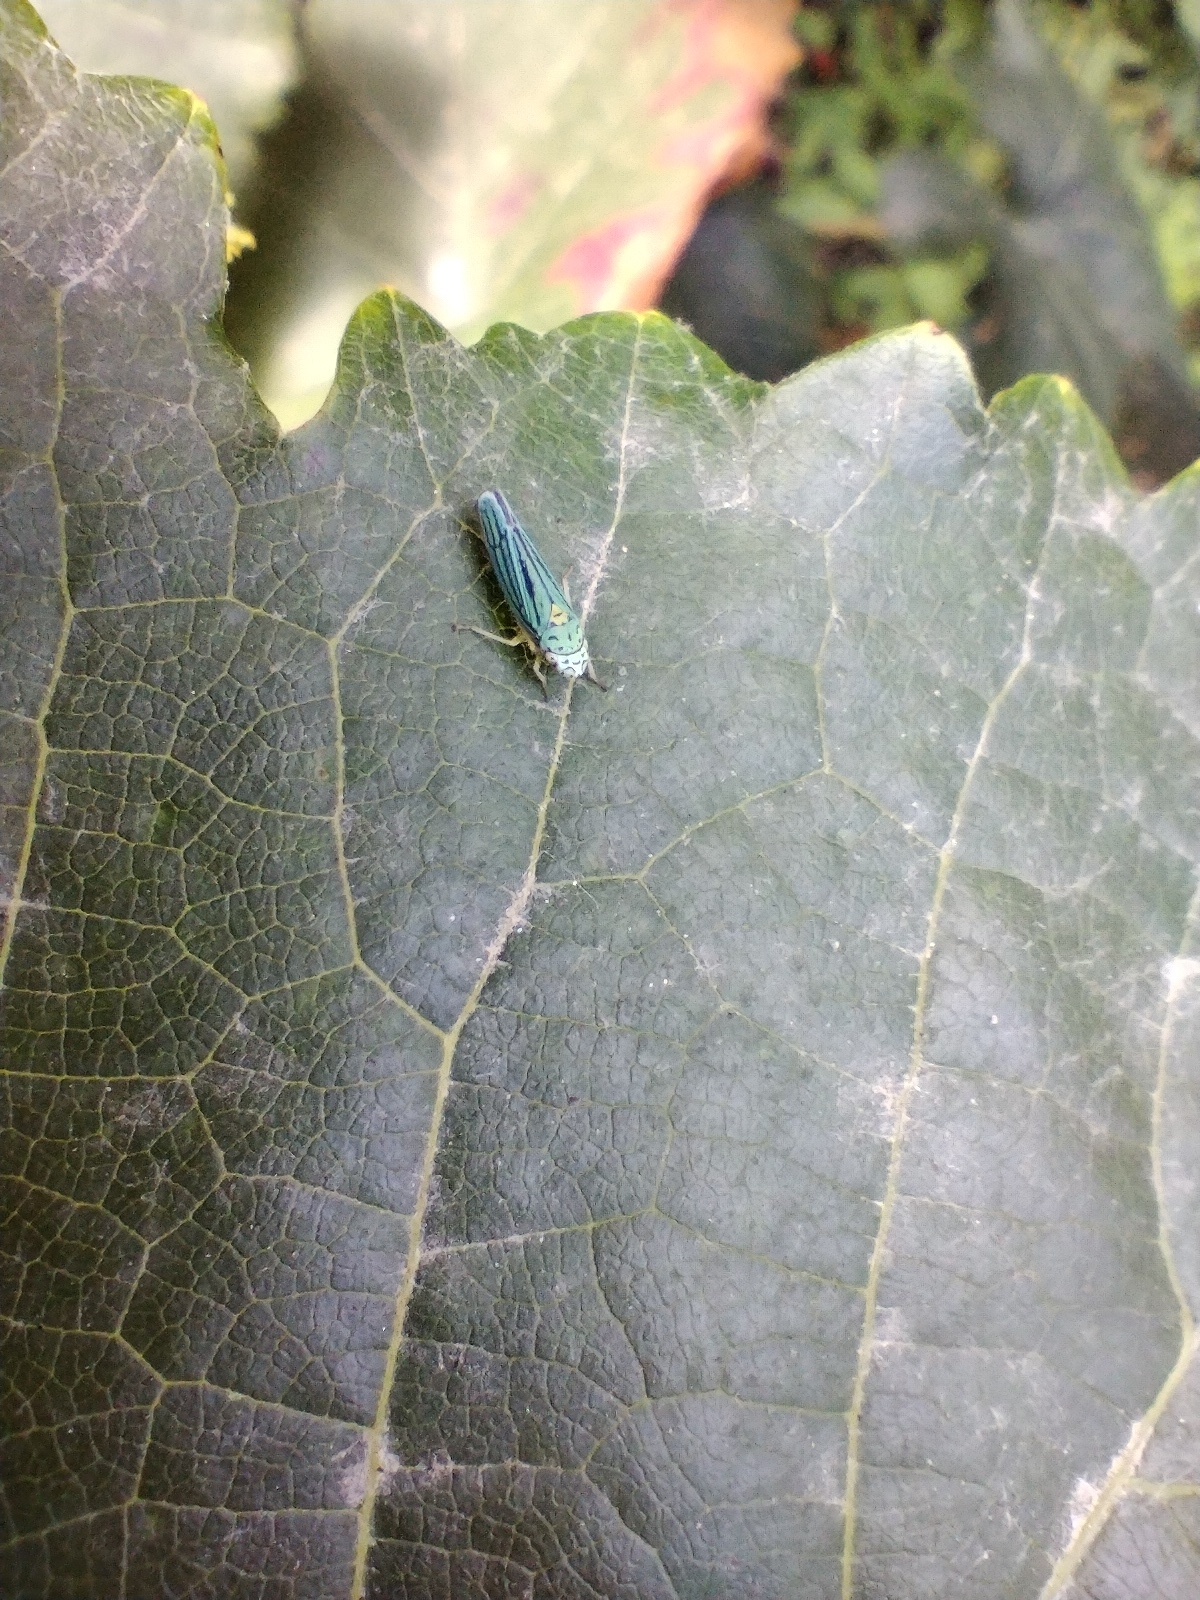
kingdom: Animalia
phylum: Arthropoda
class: Insecta
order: Hemiptera
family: Cicadellidae
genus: Graphocephala
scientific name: Graphocephala atropunctata
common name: Blue-green sharpshooter
